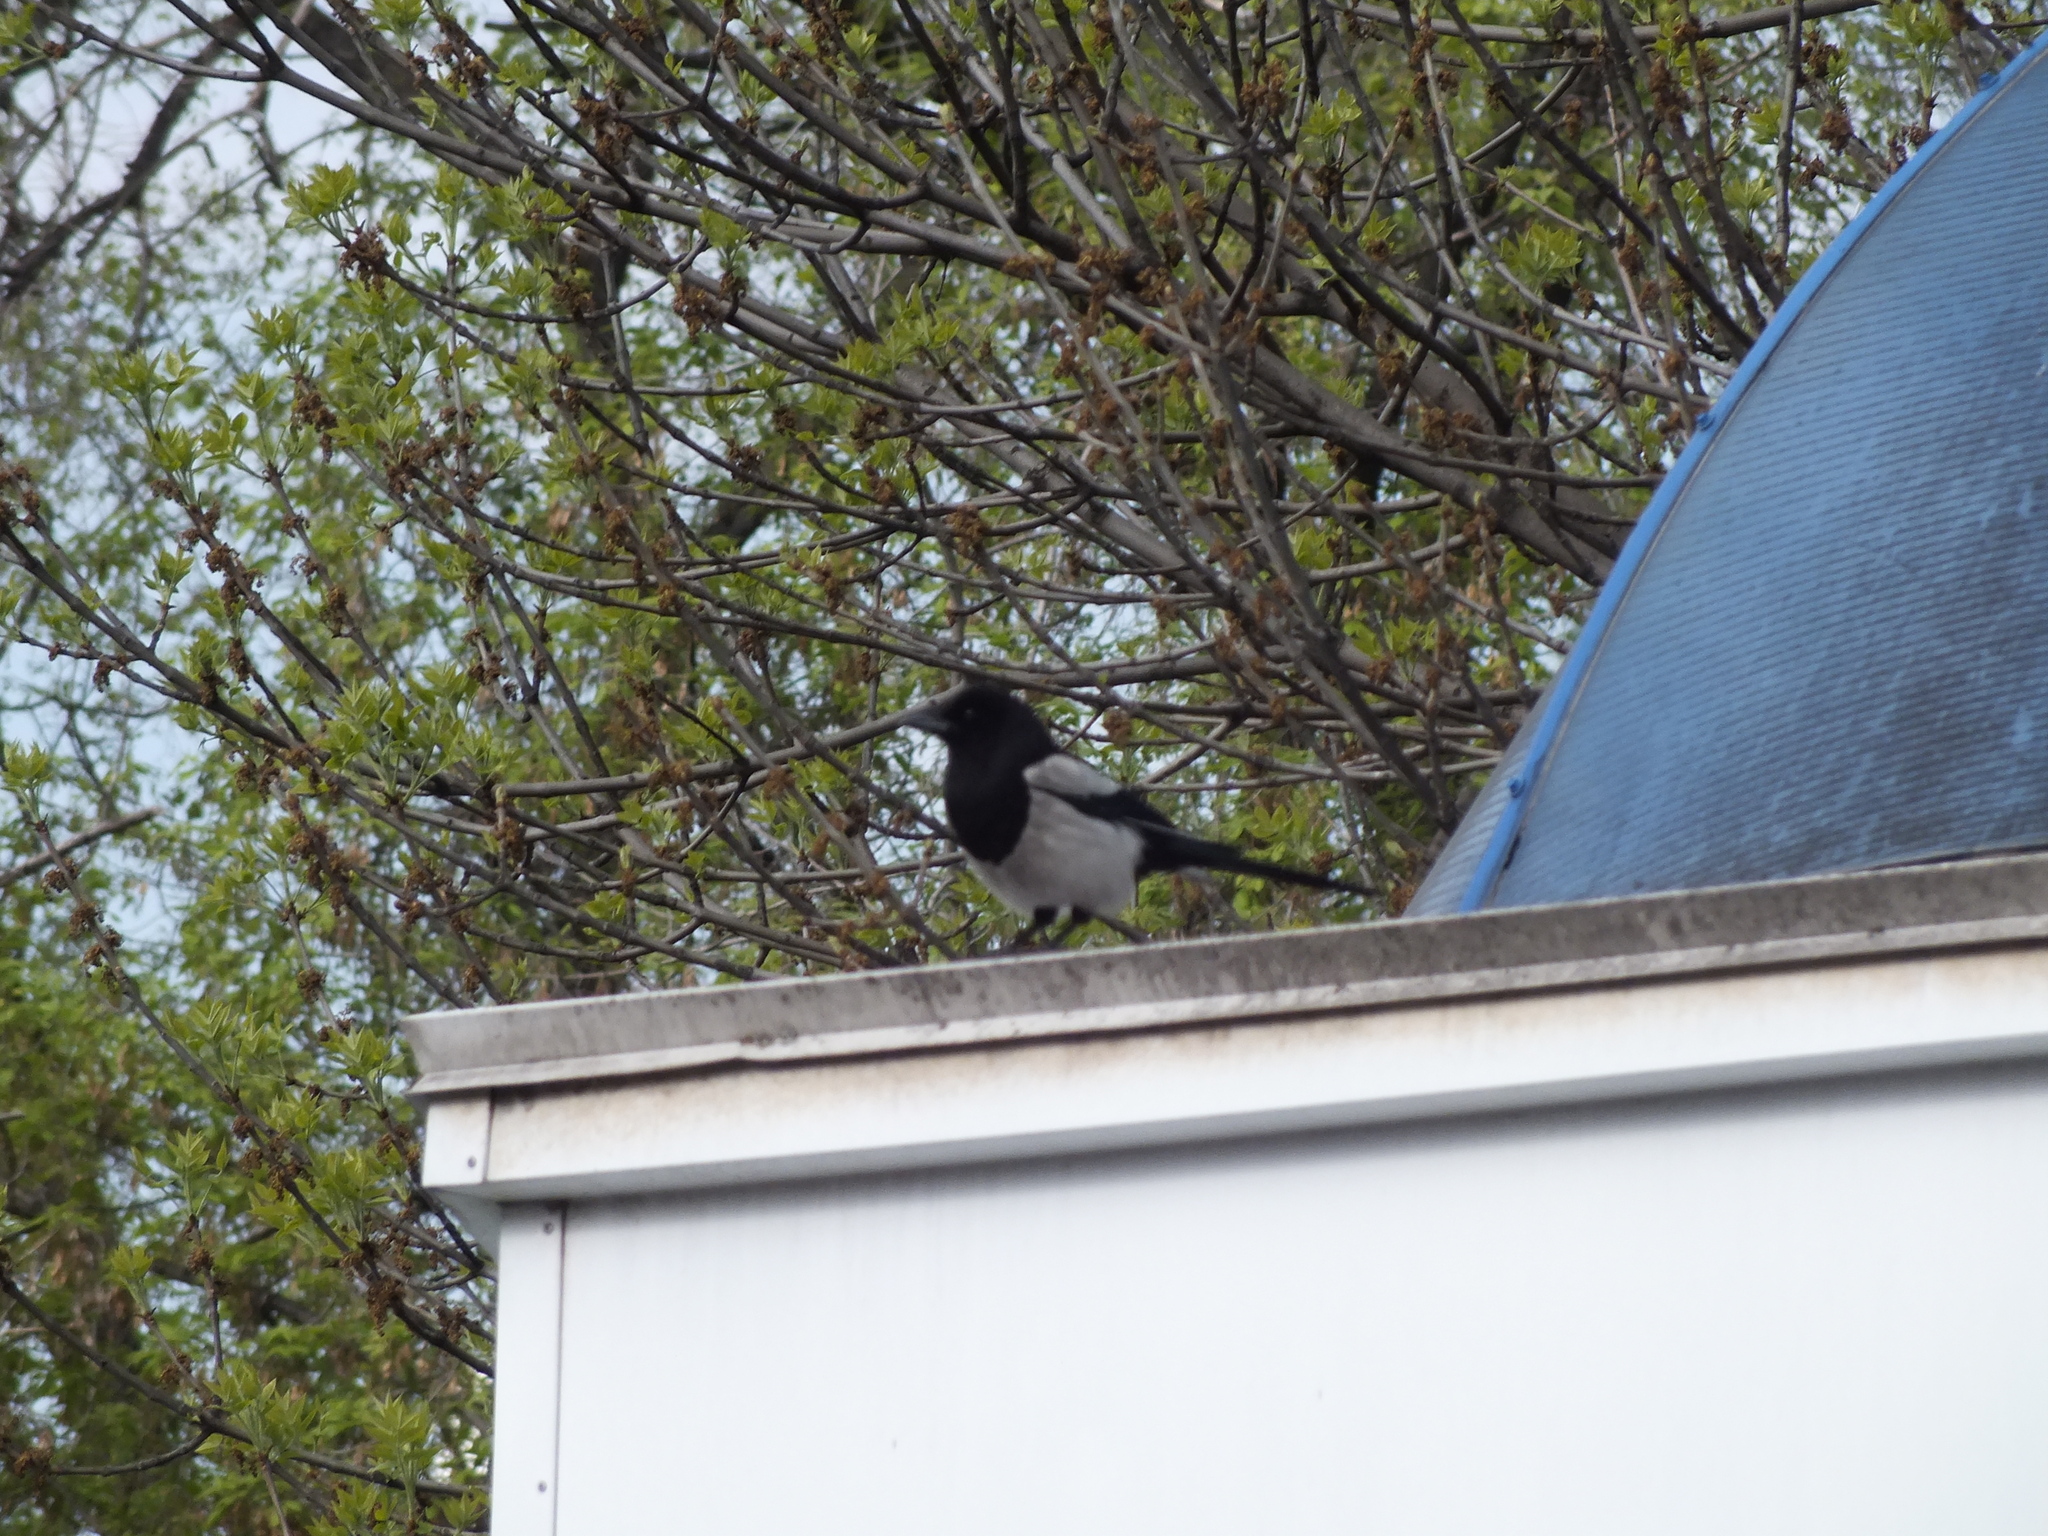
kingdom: Animalia
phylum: Chordata
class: Aves
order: Passeriformes
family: Corvidae
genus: Pica
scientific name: Pica pica
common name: Eurasian magpie
